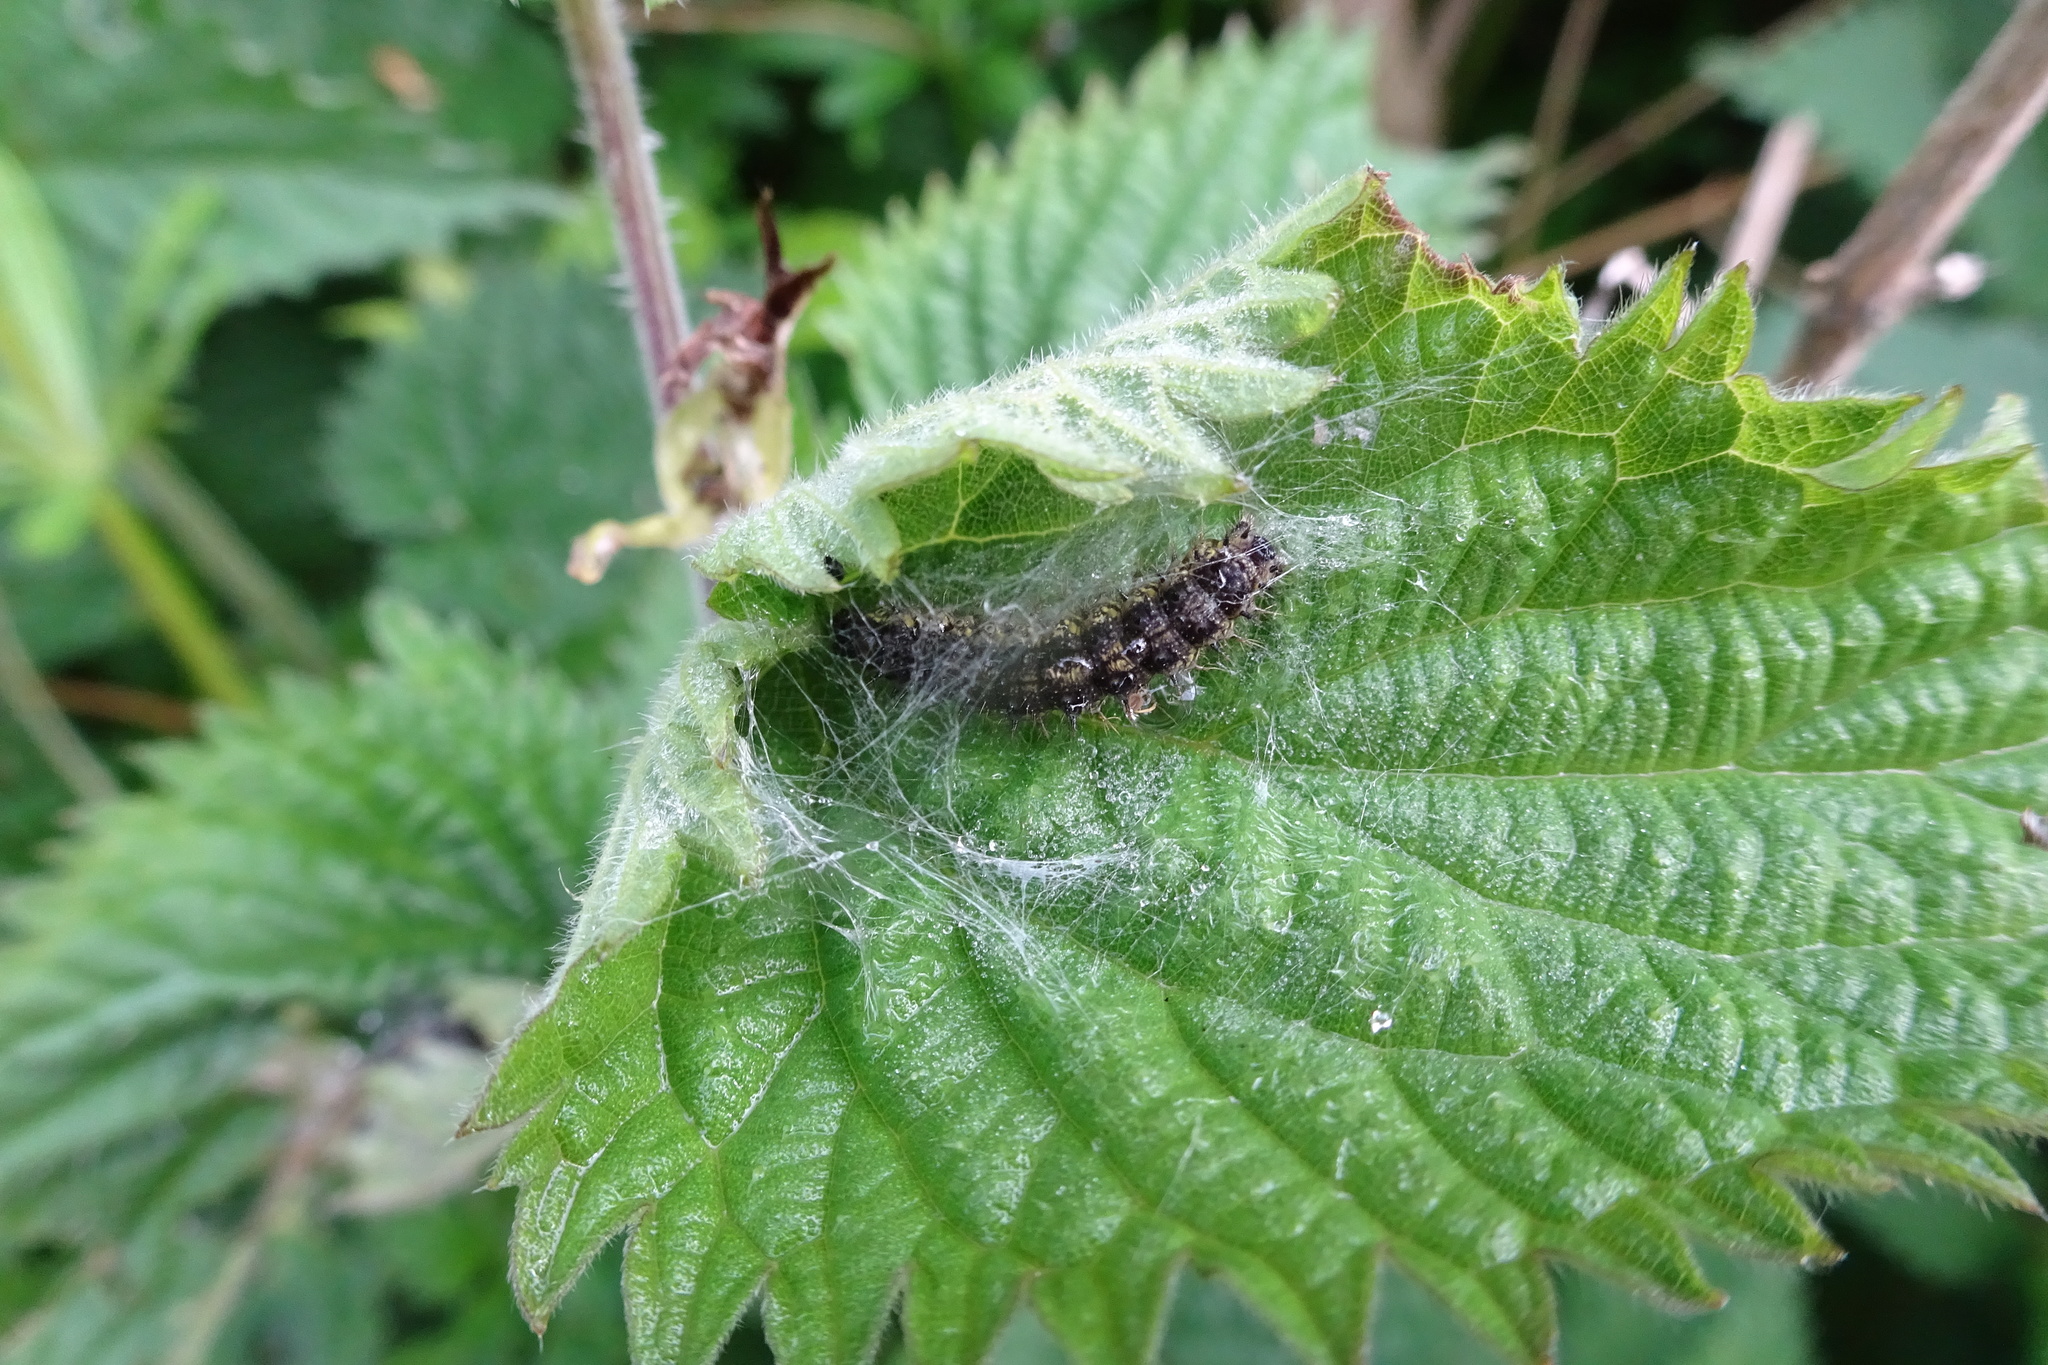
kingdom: Animalia
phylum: Arthropoda
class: Insecta
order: Lepidoptera
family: Nymphalidae
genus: Aglais
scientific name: Aglais urticae
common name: Small tortoiseshell
